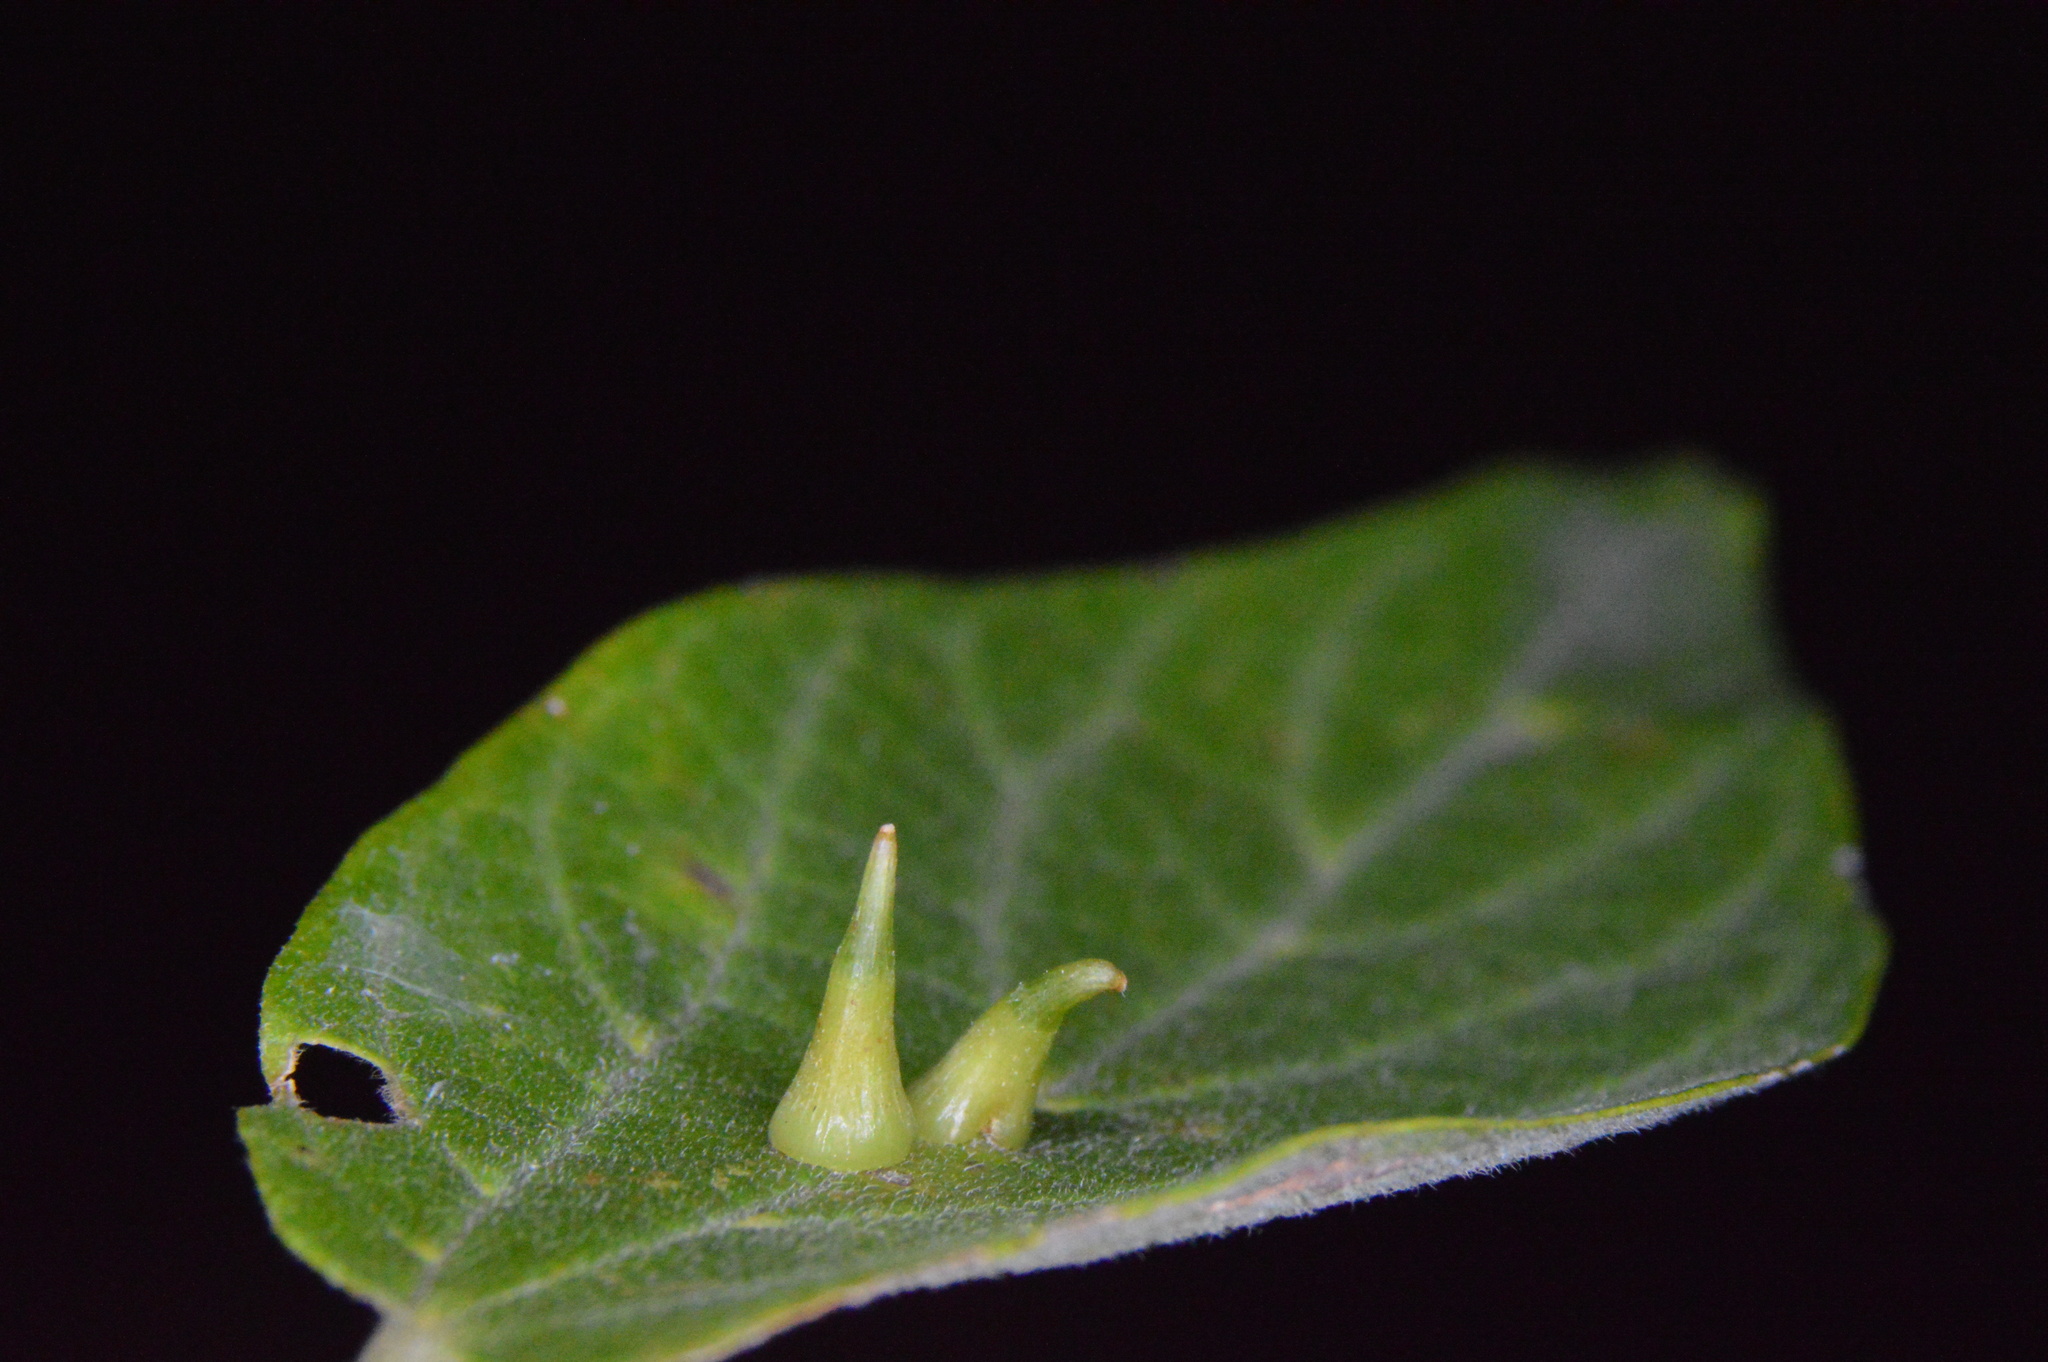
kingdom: Animalia
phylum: Arthropoda
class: Insecta
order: Diptera
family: Cecidomyiidae
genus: Celticecis
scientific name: Celticecis subulata
